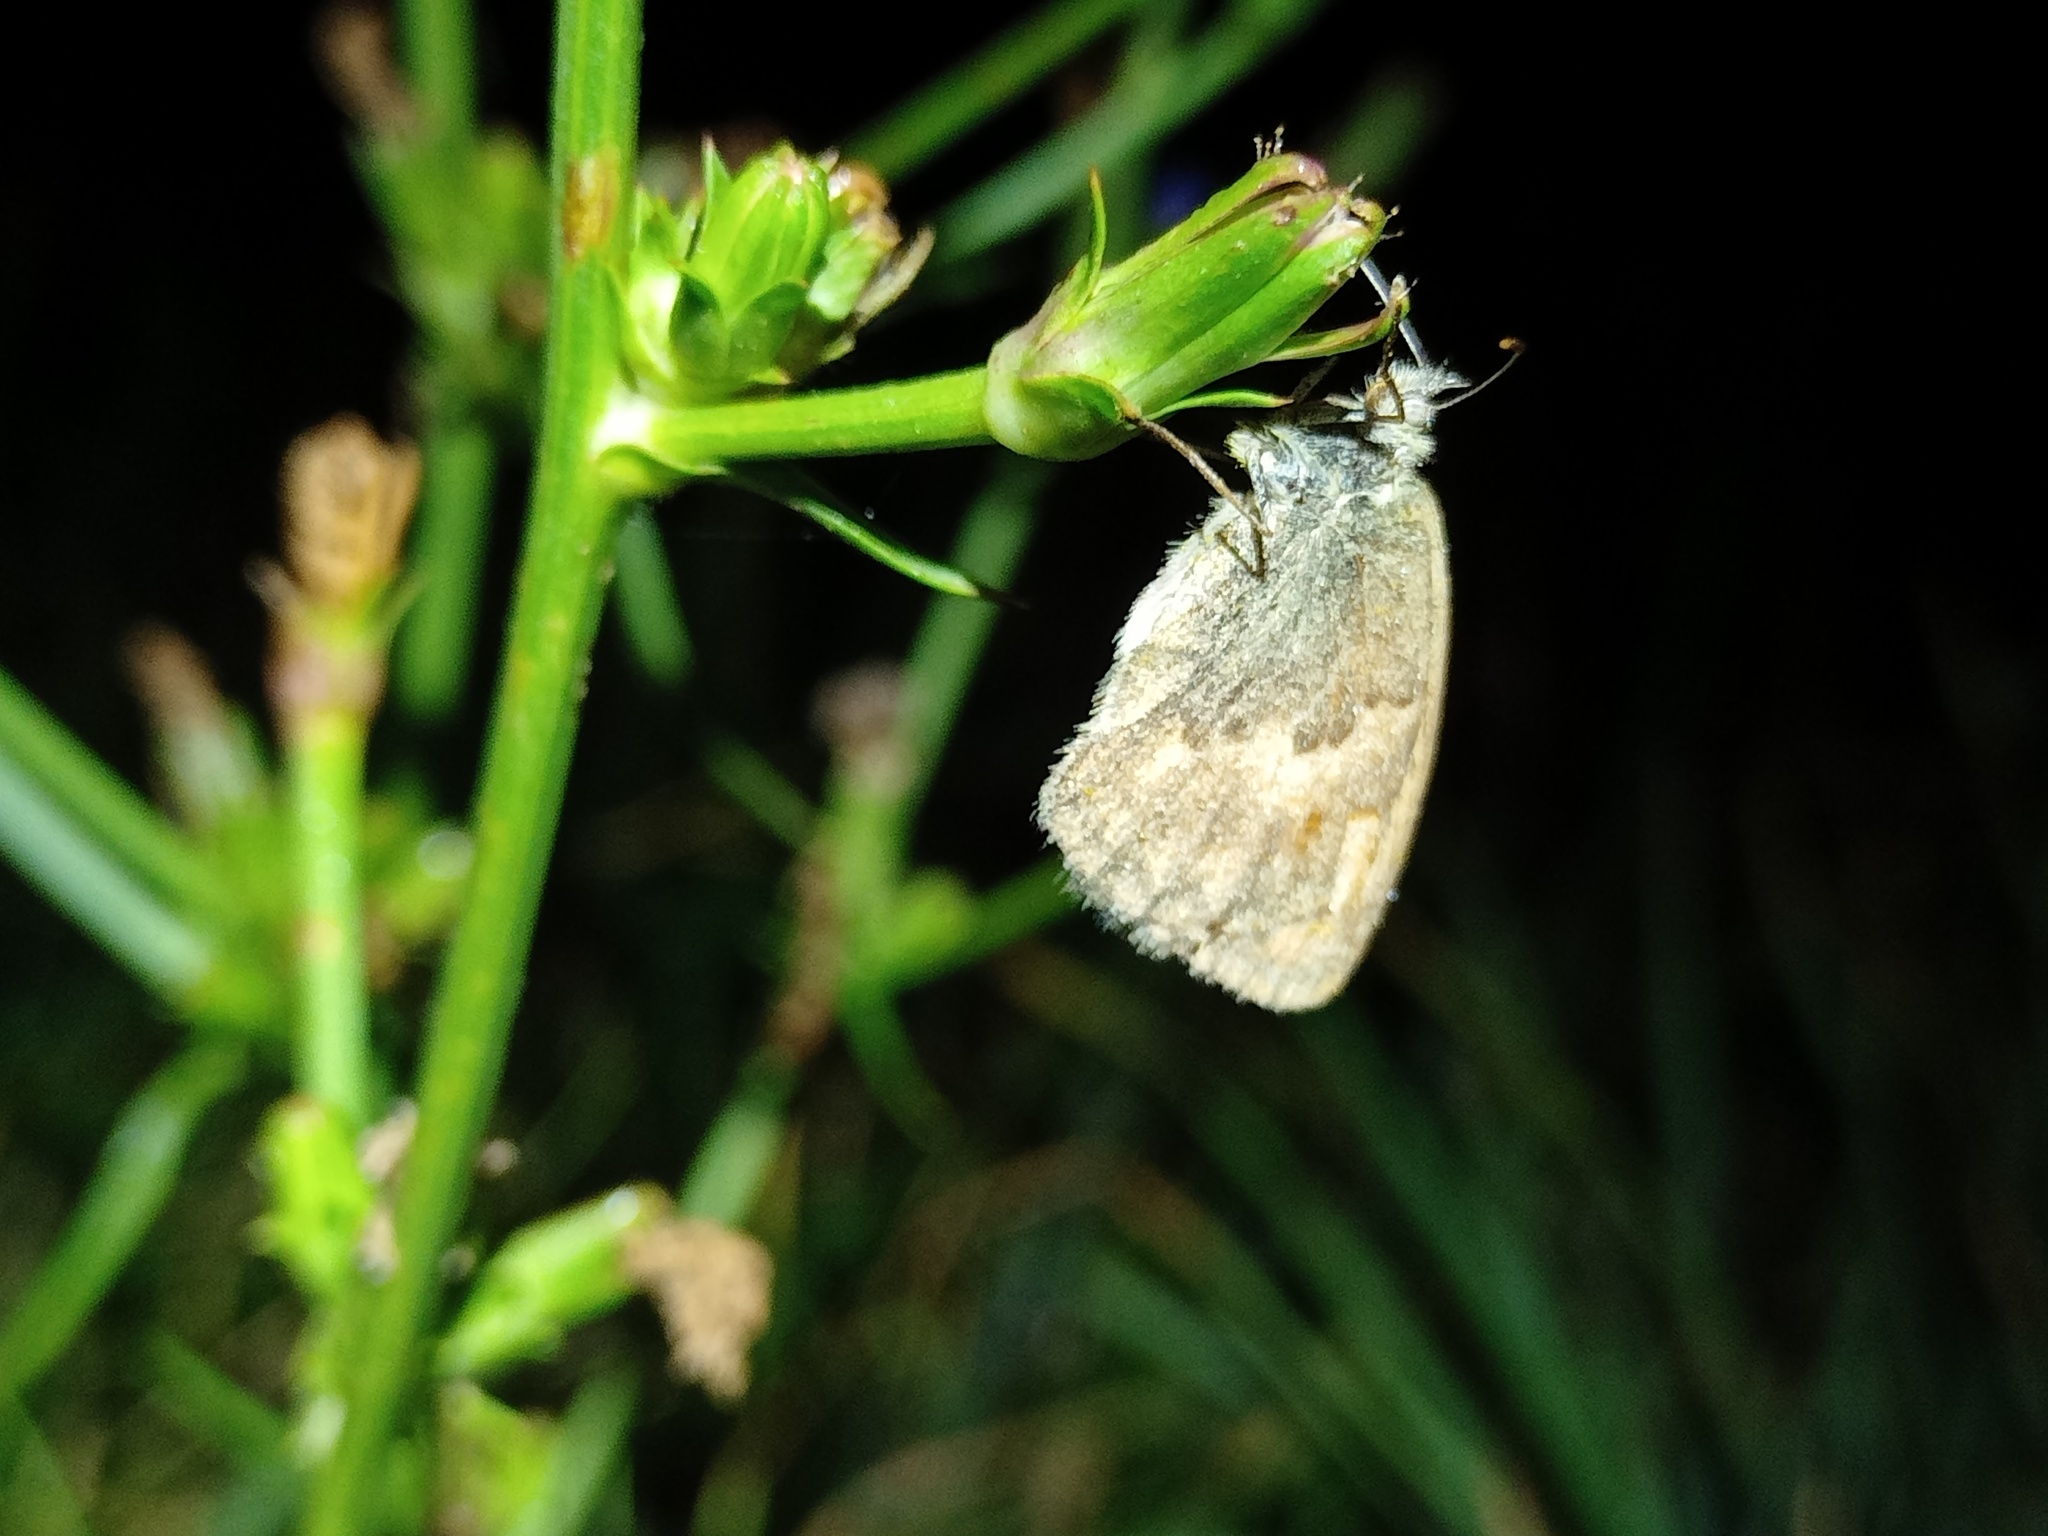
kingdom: Animalia
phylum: Arthropoda
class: Insecta
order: Lepidoptera
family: Nymphalidae
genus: Coenonympha
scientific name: Coenonympha pamphilus
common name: Small heath
